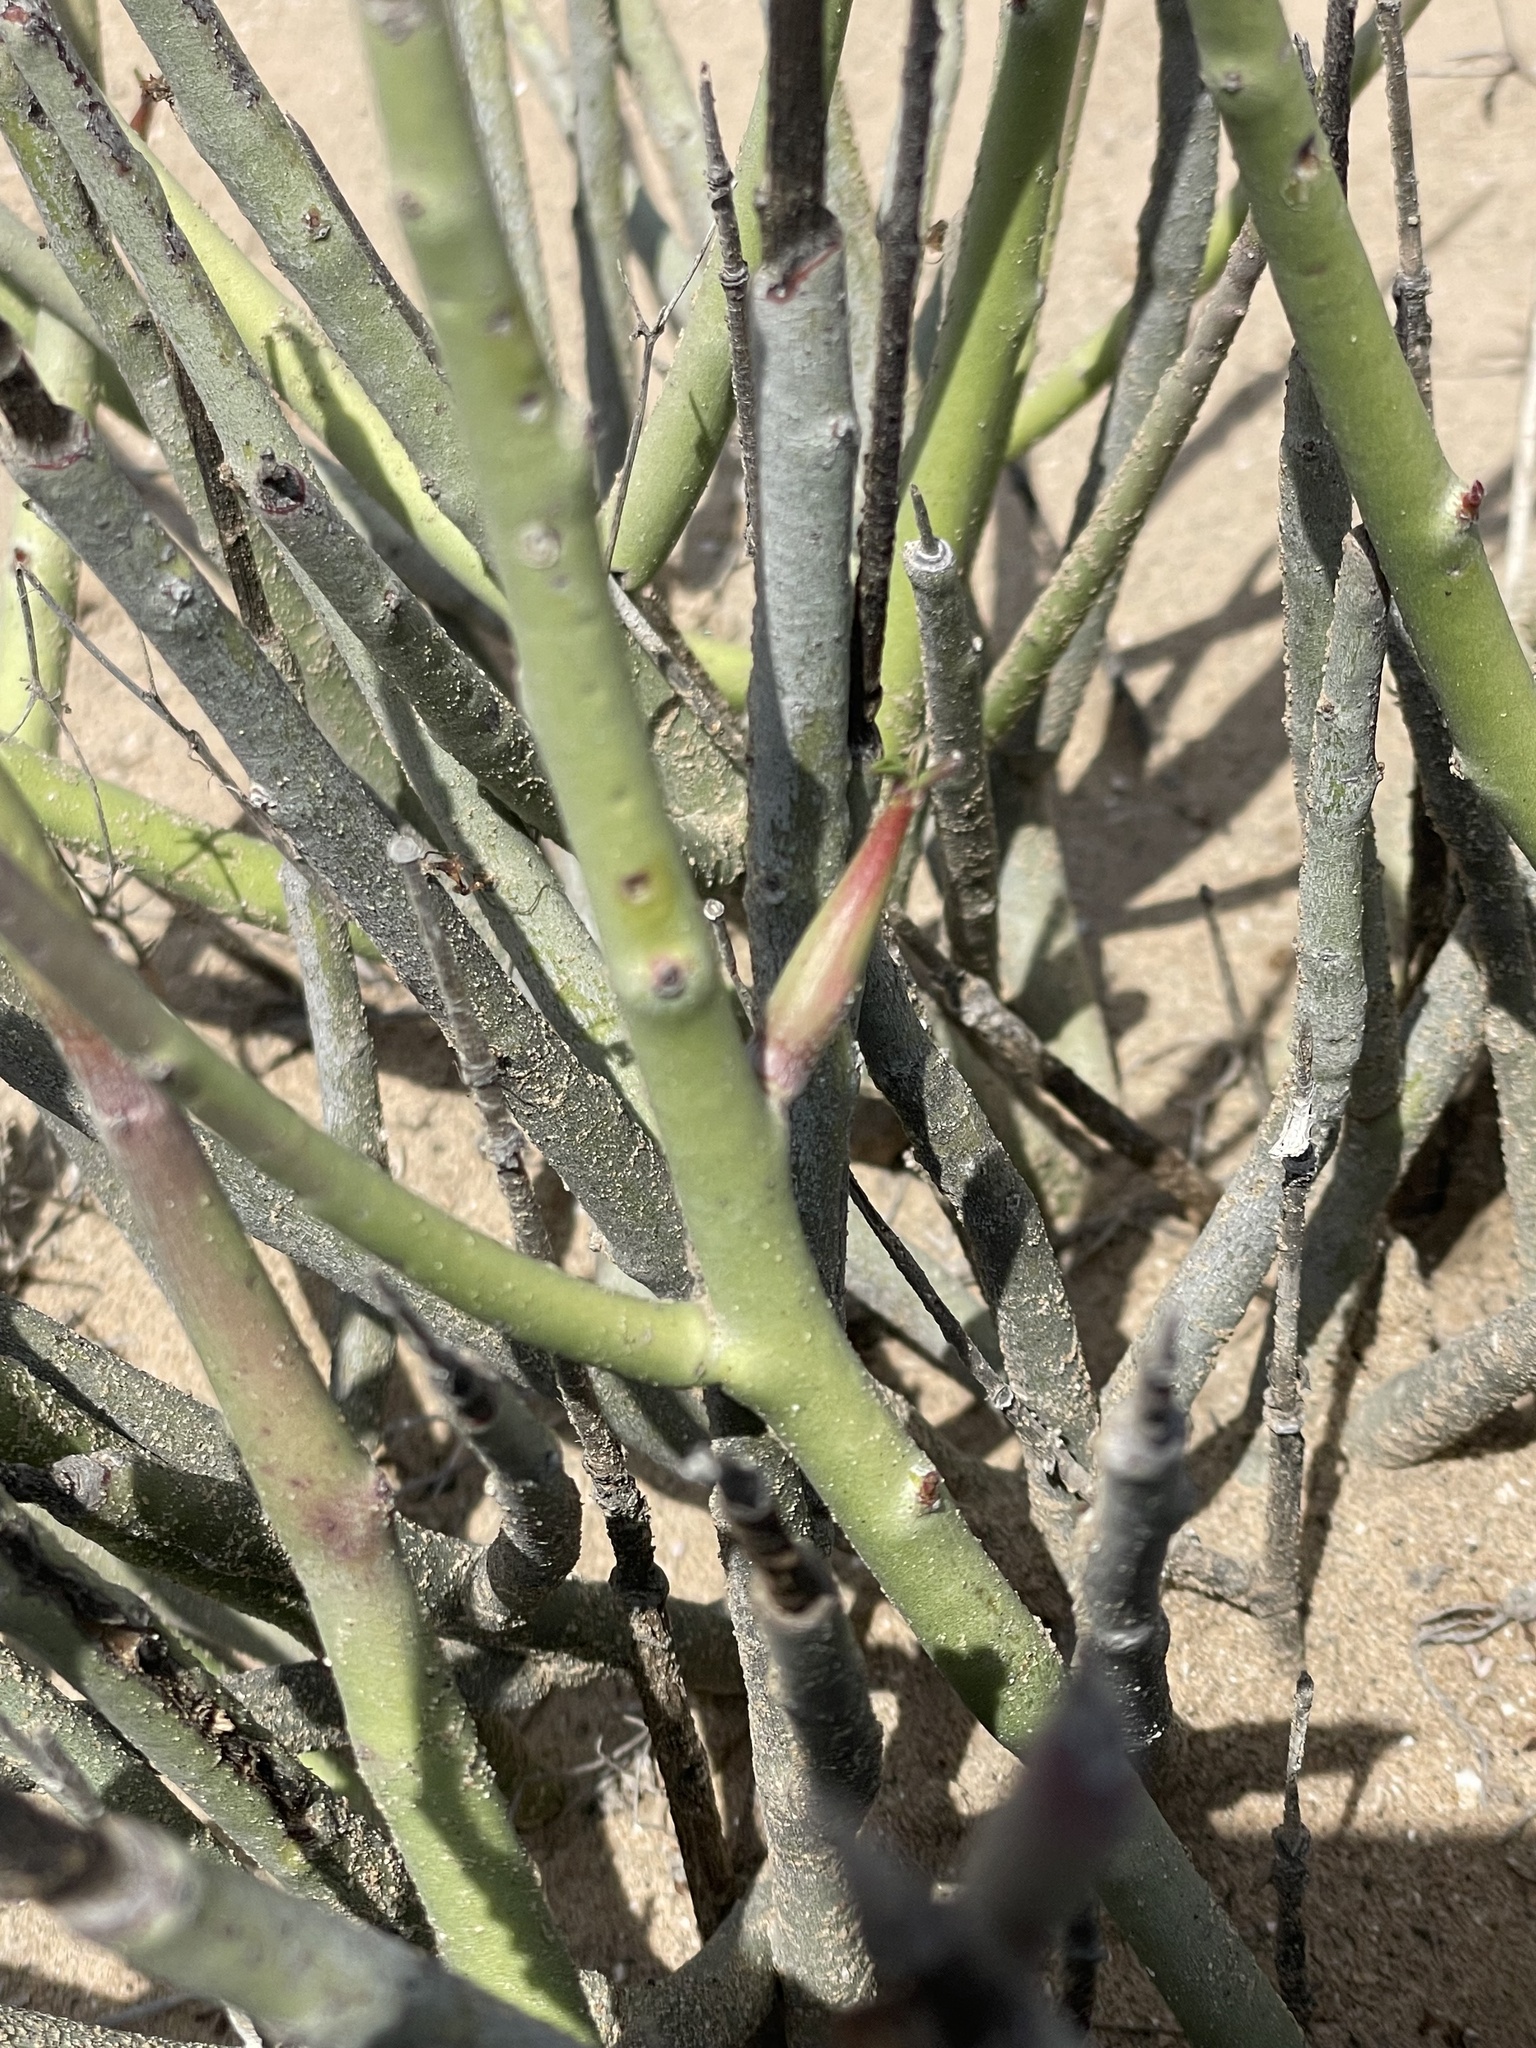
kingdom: Plantae
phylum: Tracheophyta
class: Magnoliopsida
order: Malpighiales
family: Euphorbiaceae
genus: Euphorbia
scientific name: Euphorbia lomelii
